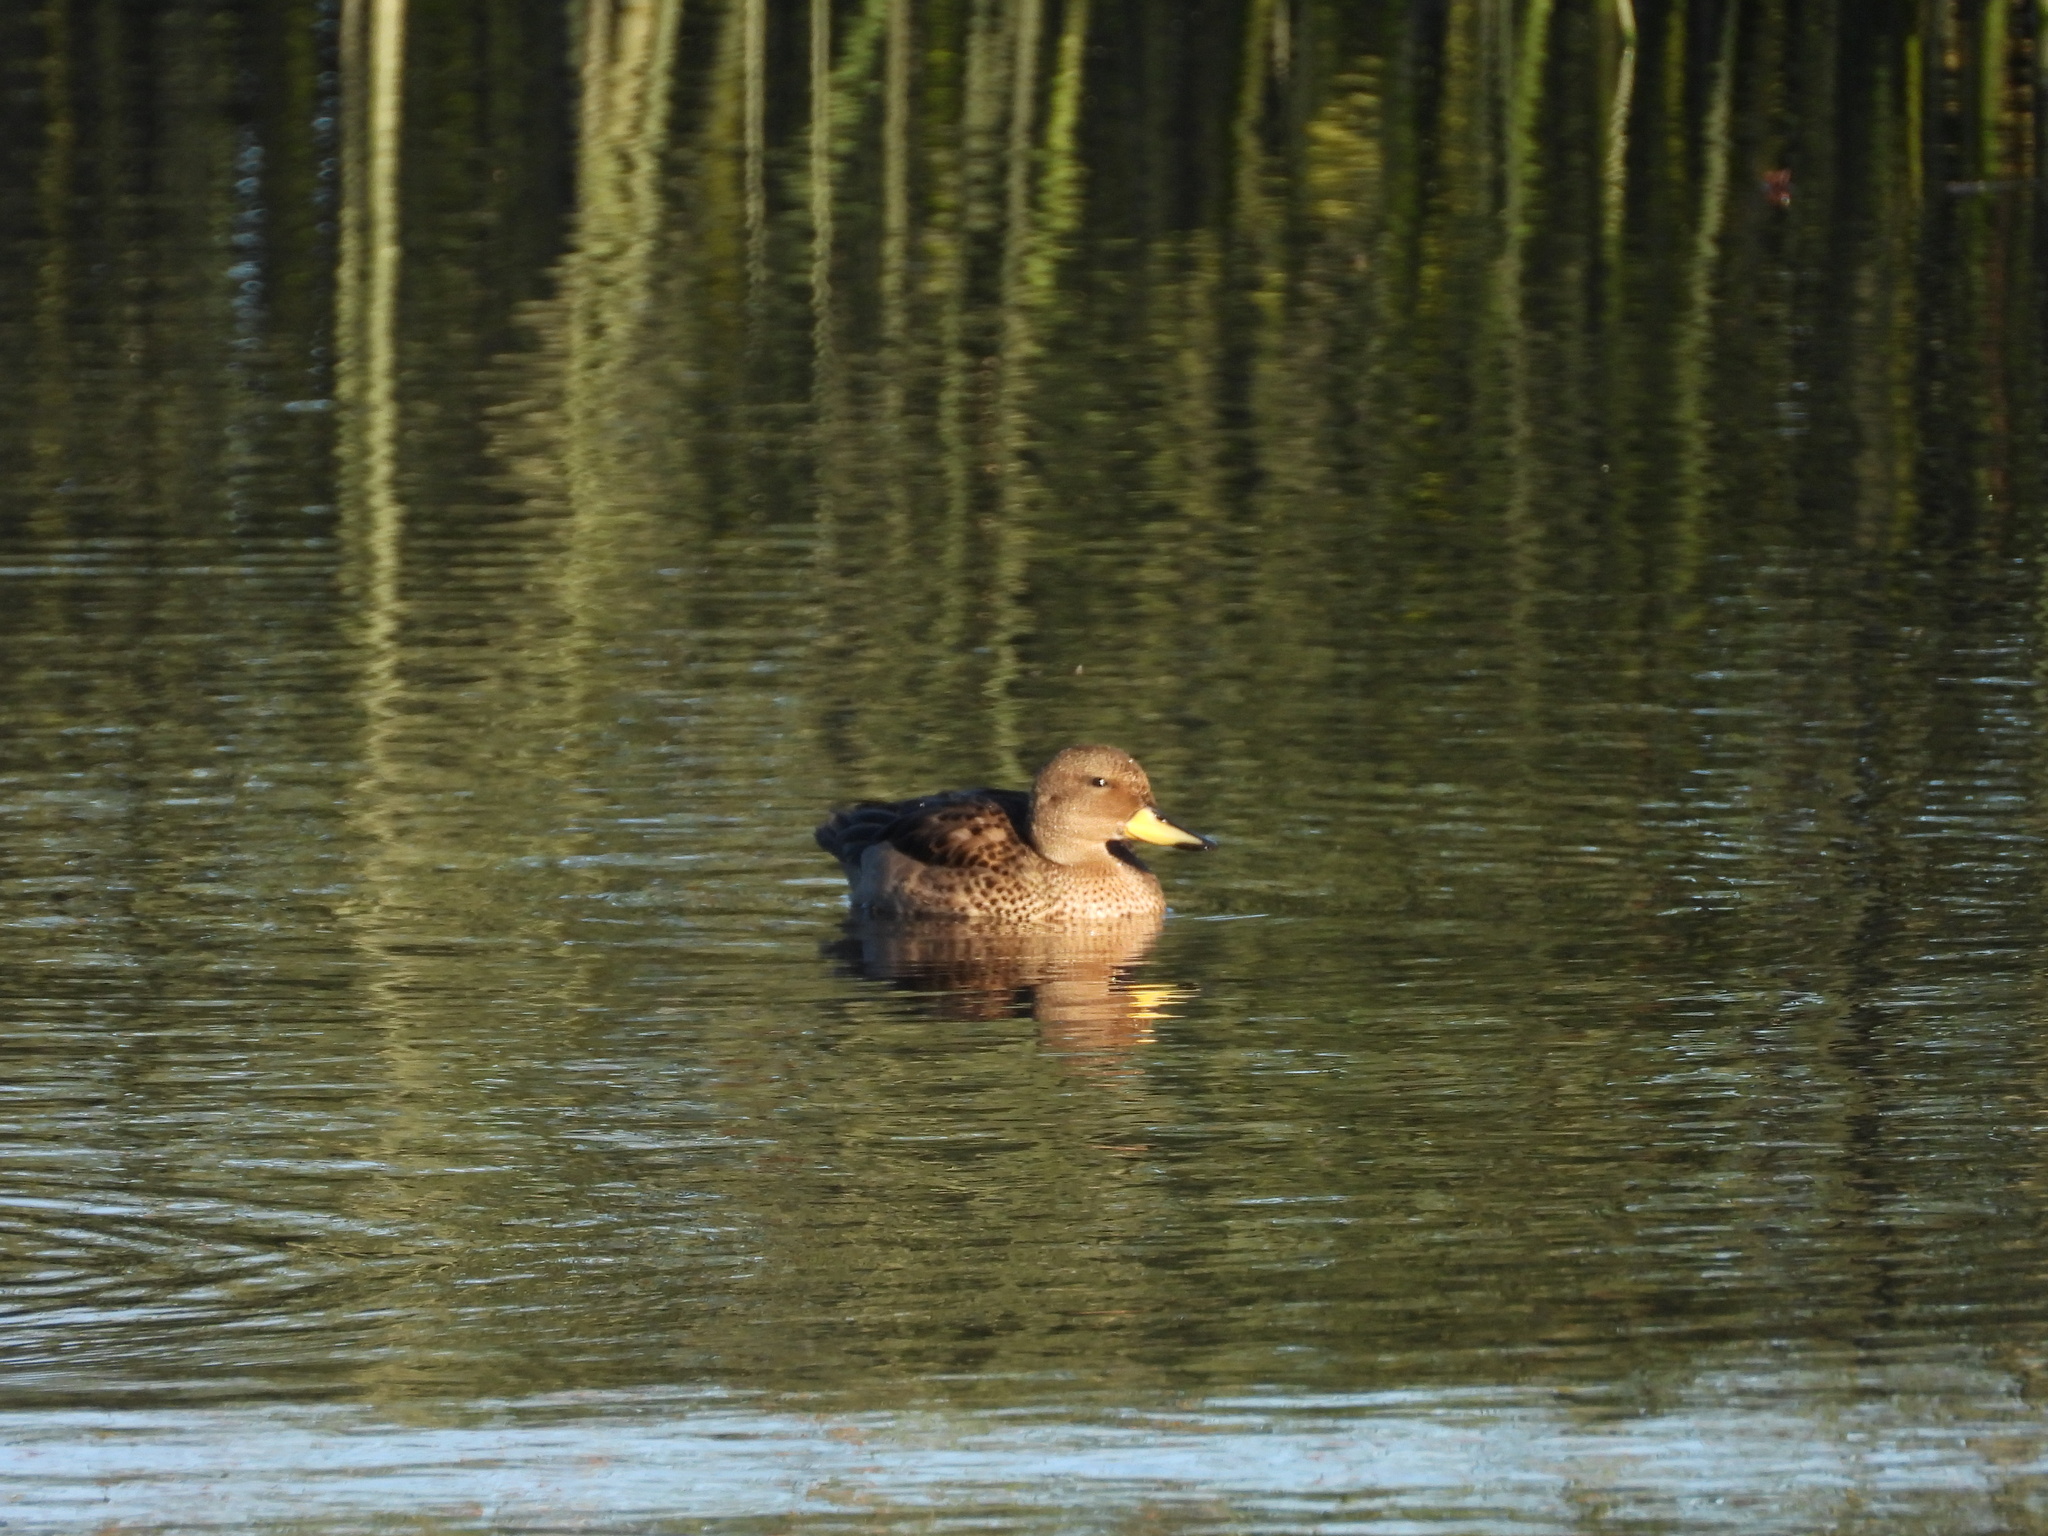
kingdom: Animalia
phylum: Chordata
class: Aves
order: Anseriformes
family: Anatidae
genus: Anas
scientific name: Anas flavirostris
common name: Yellow-billed teal
